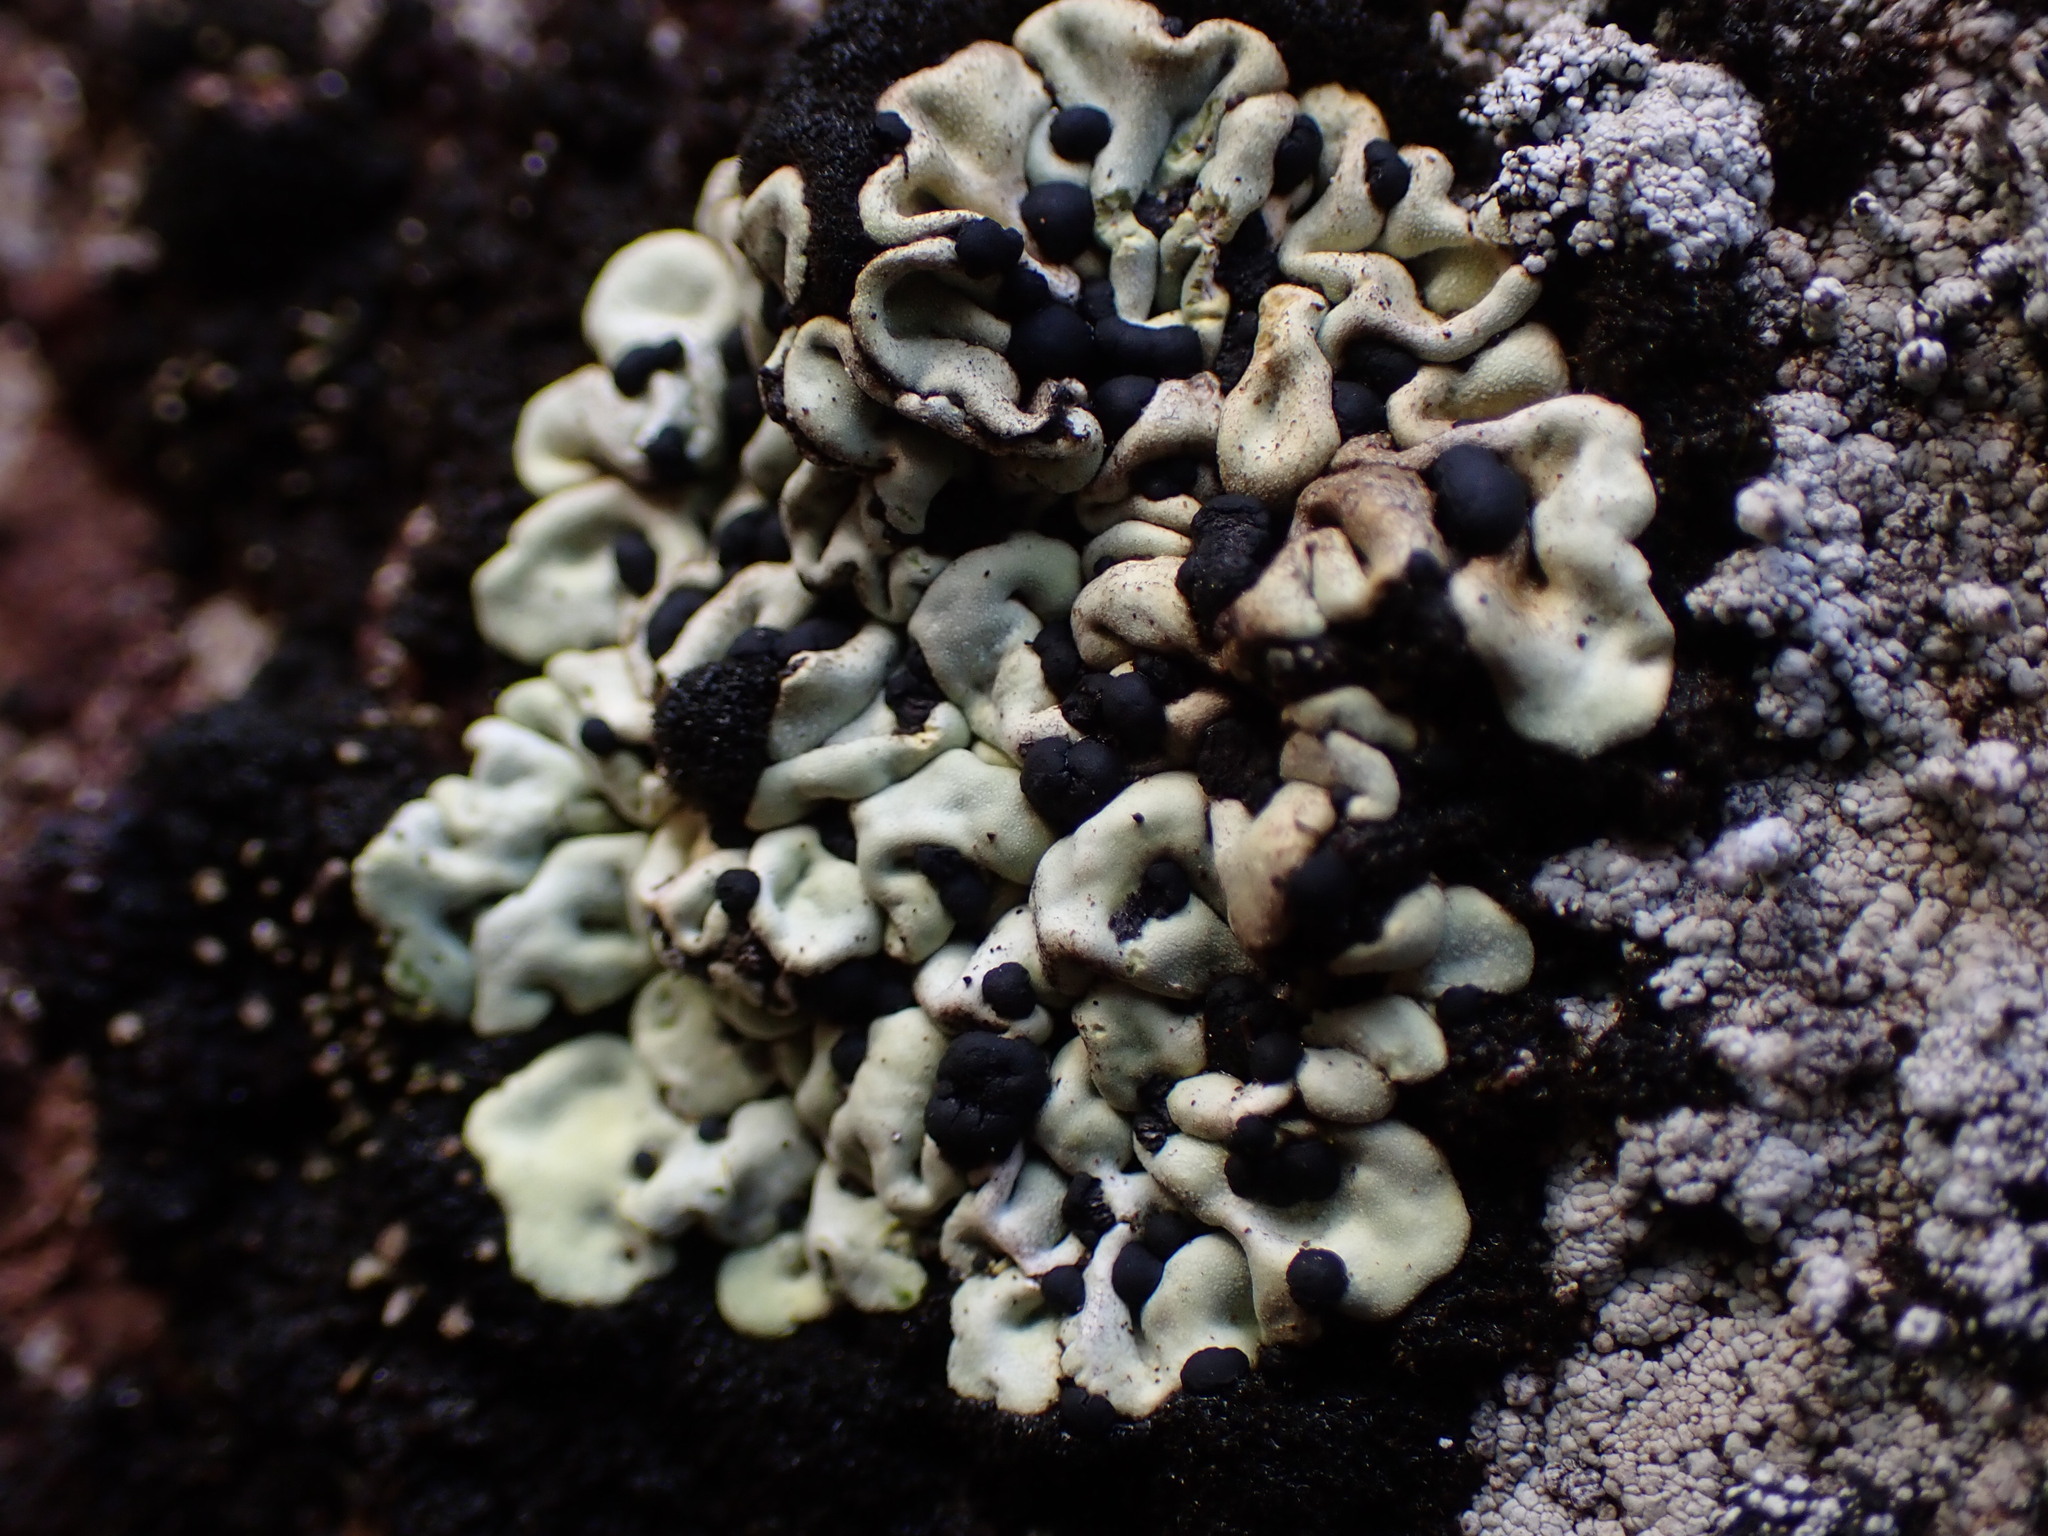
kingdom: Fungi
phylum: Ascomycota
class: Lecanoromycetes
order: Rhizocarpales
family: Rhizocarpaceae
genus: Catolechia
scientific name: Catolechia wahlenbergii
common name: Goblin lights
